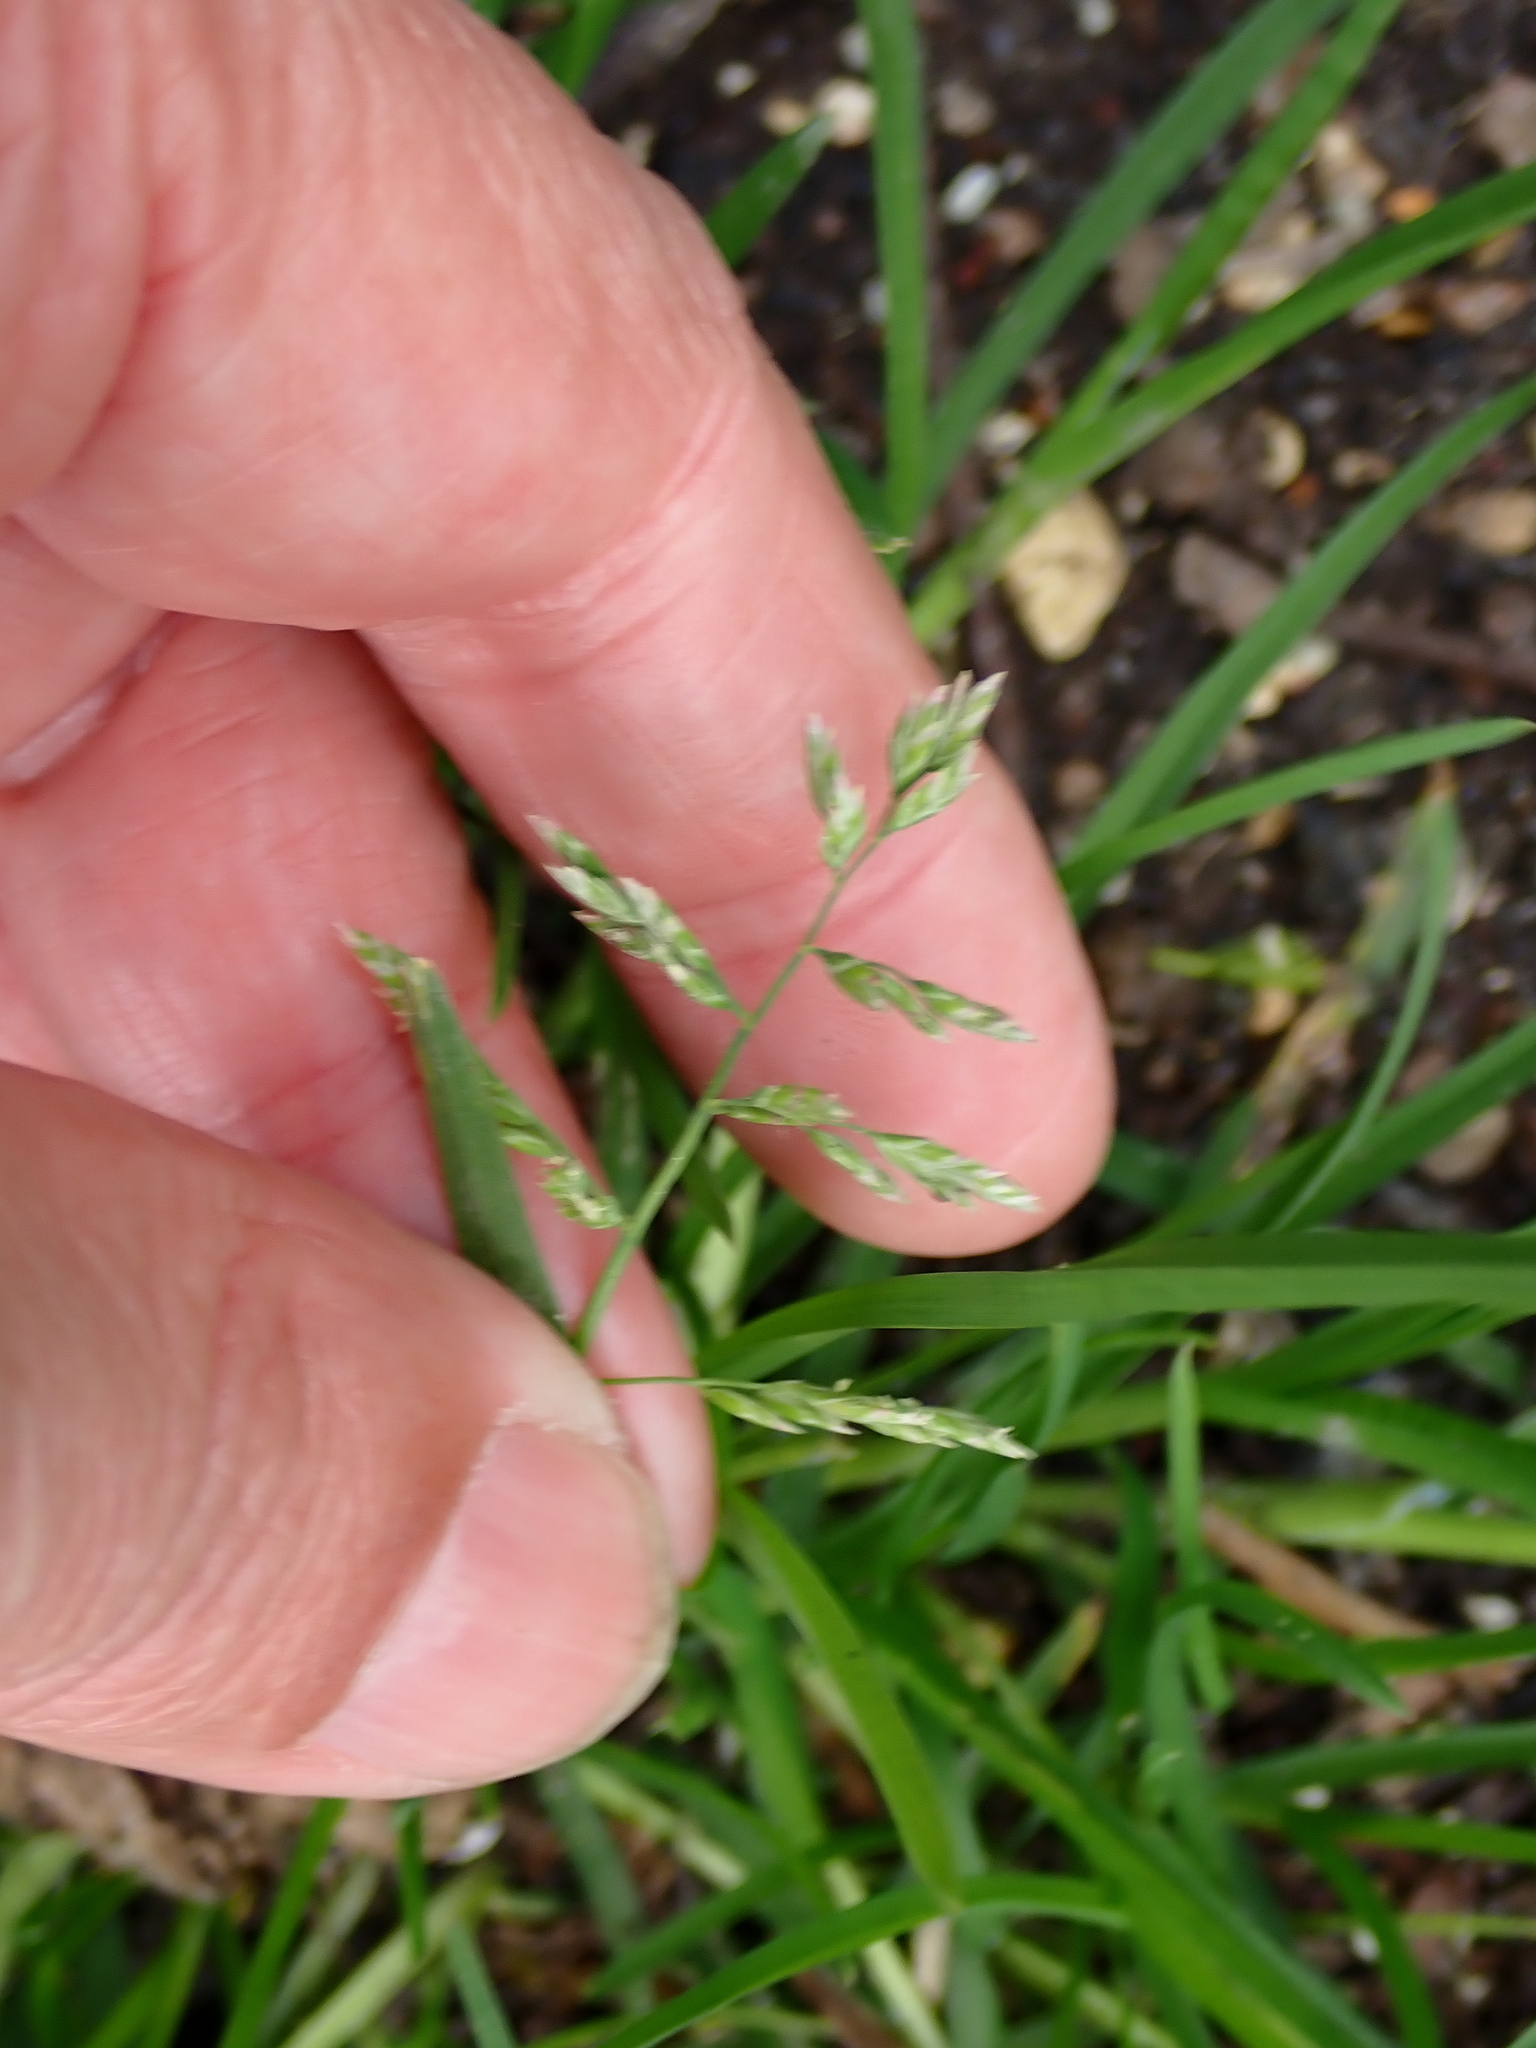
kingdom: Plantae
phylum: Tracheophyta
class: Liliopsida
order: Poales
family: Poaceae
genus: Poa
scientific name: Poa annua
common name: Annual bluegrass
